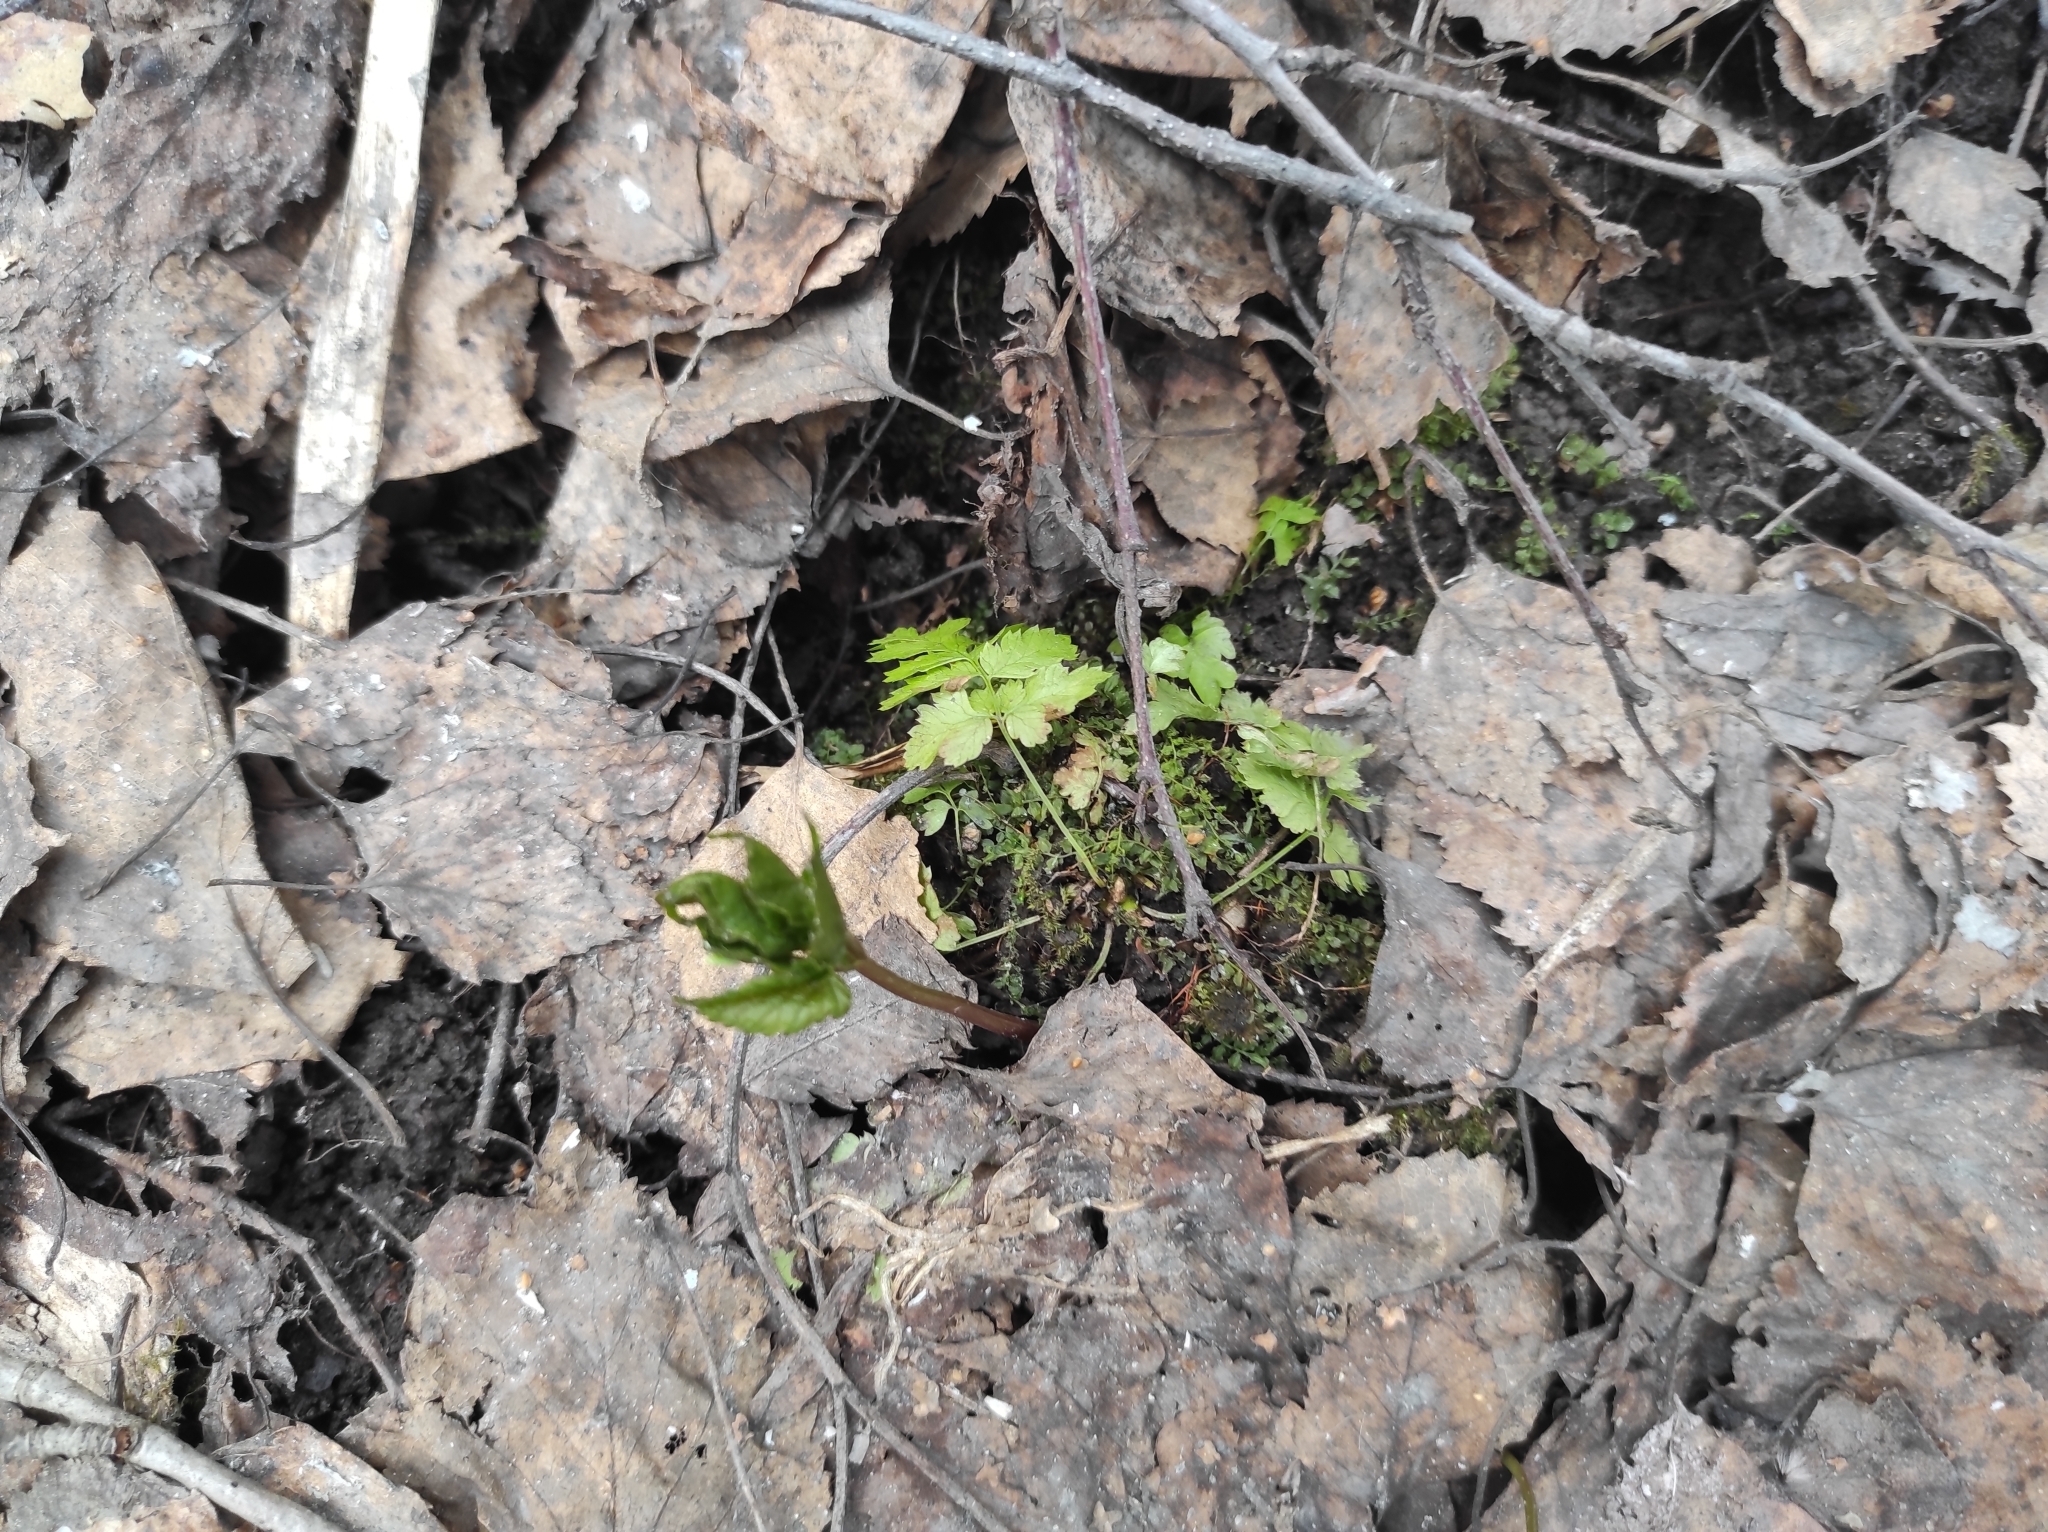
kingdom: Plantae
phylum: Tracheophyta
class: Magnoliopsida
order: Apiales
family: Apiaceae
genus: Aegopodium
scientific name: Aegopodium podagraria
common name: Ground-elder
